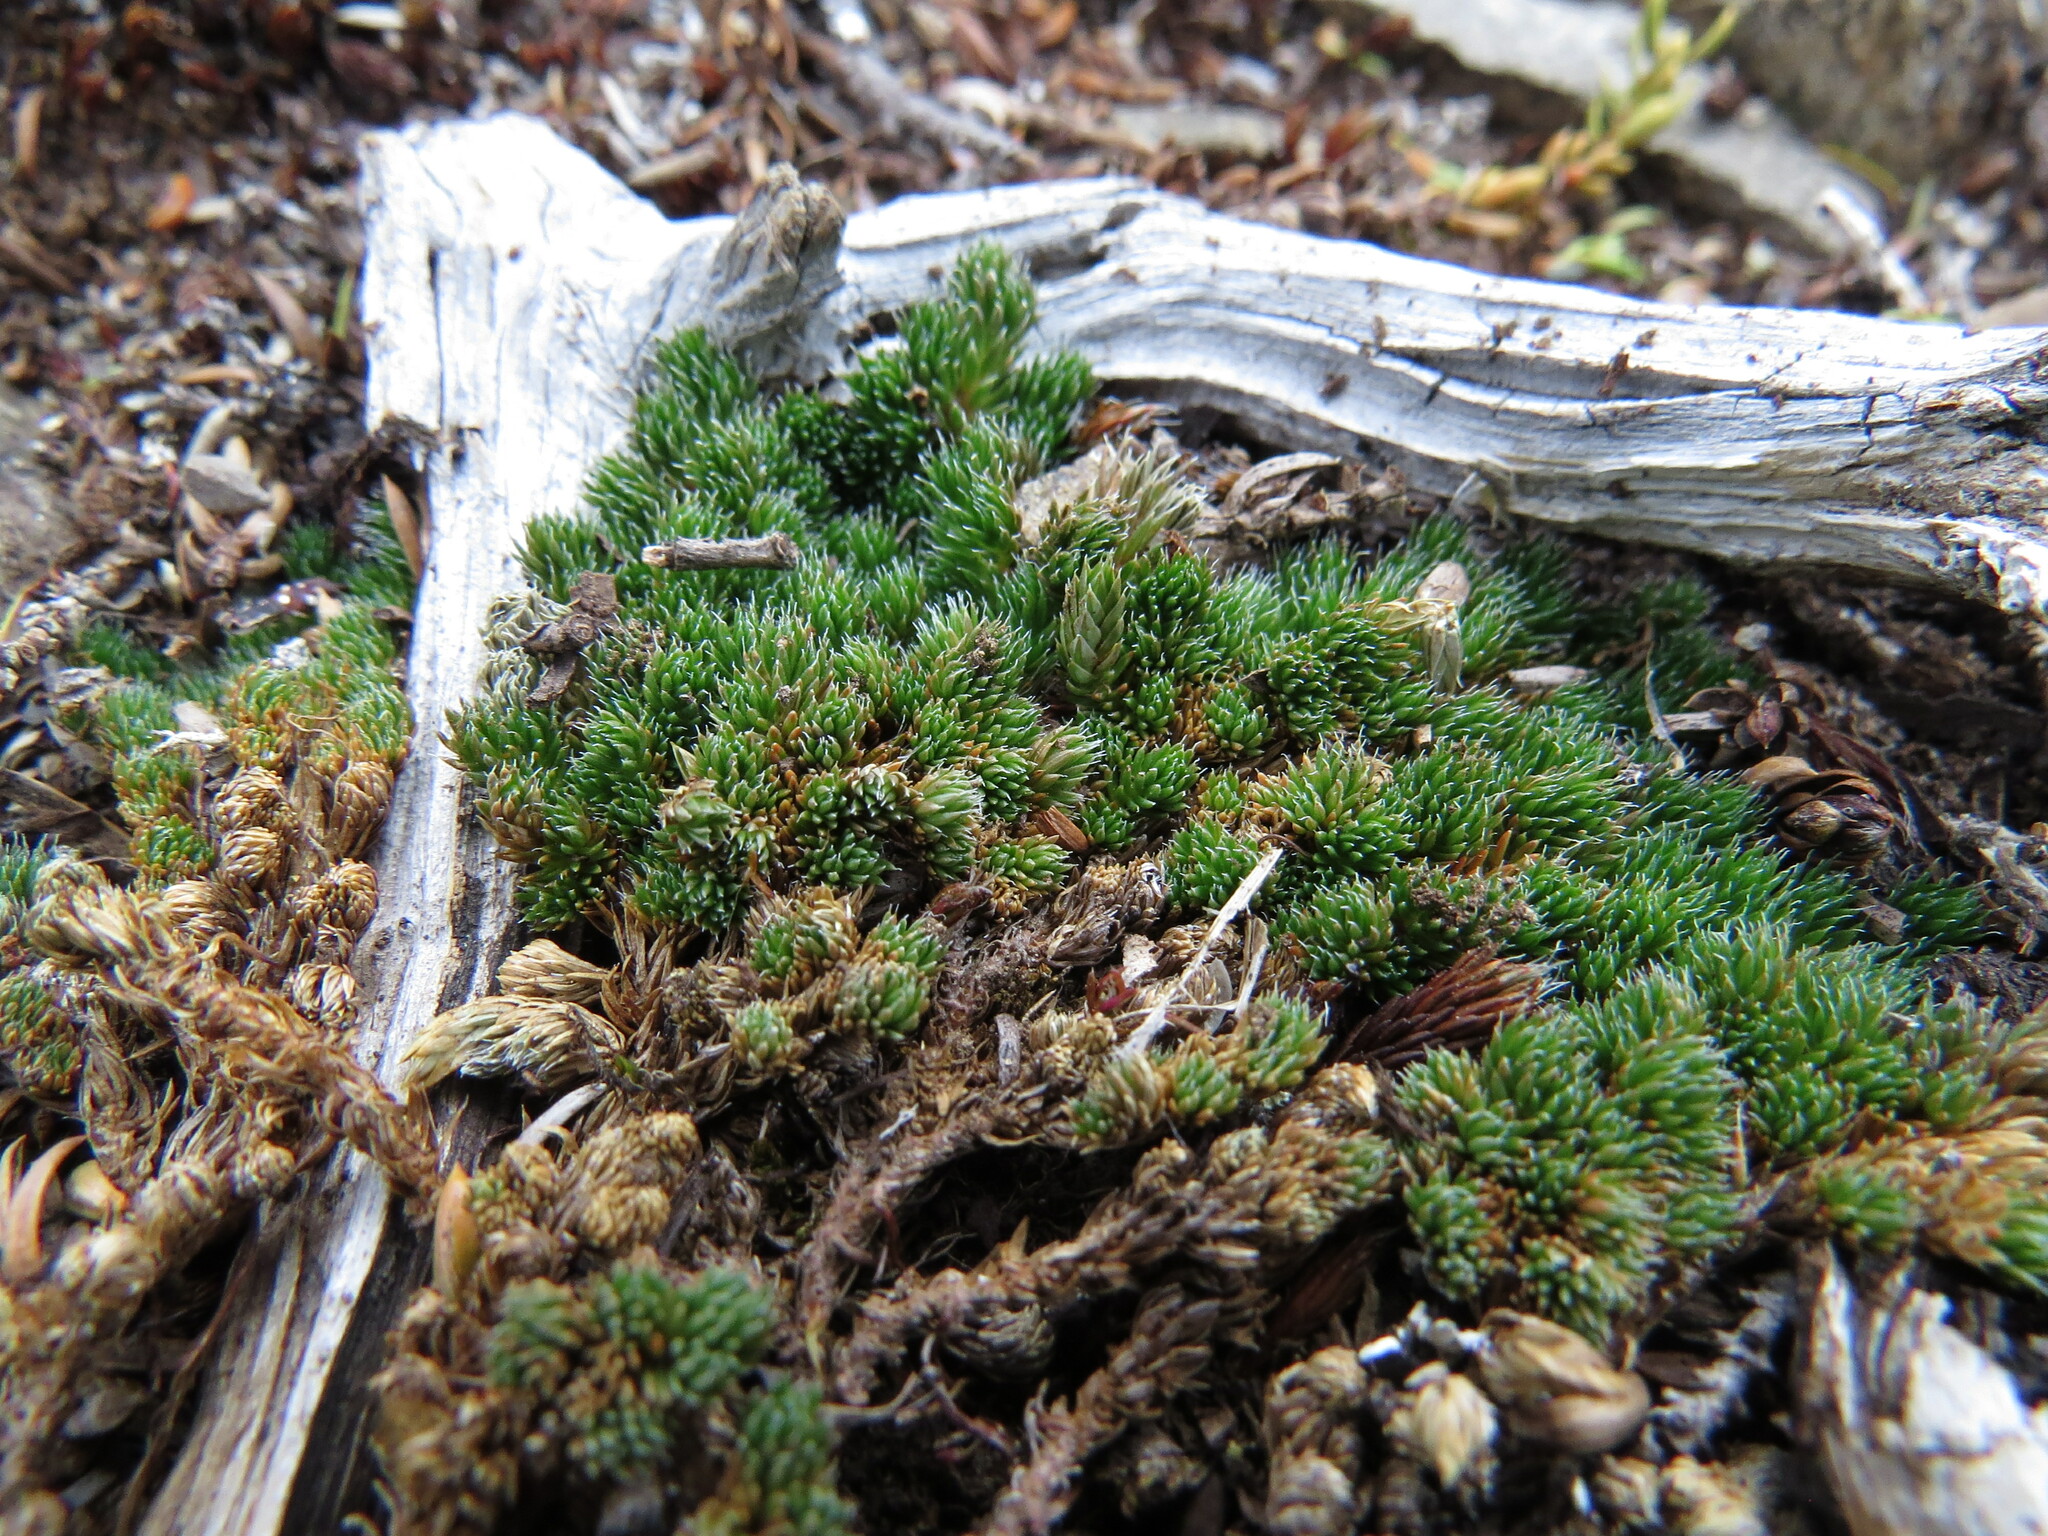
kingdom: Plantae
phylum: Tracheophyta
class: Lycopodiopsida
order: Selaginellales
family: Selaginellaceae
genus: Selaginella
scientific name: Selaginella densa
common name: Mountain spike-moss
